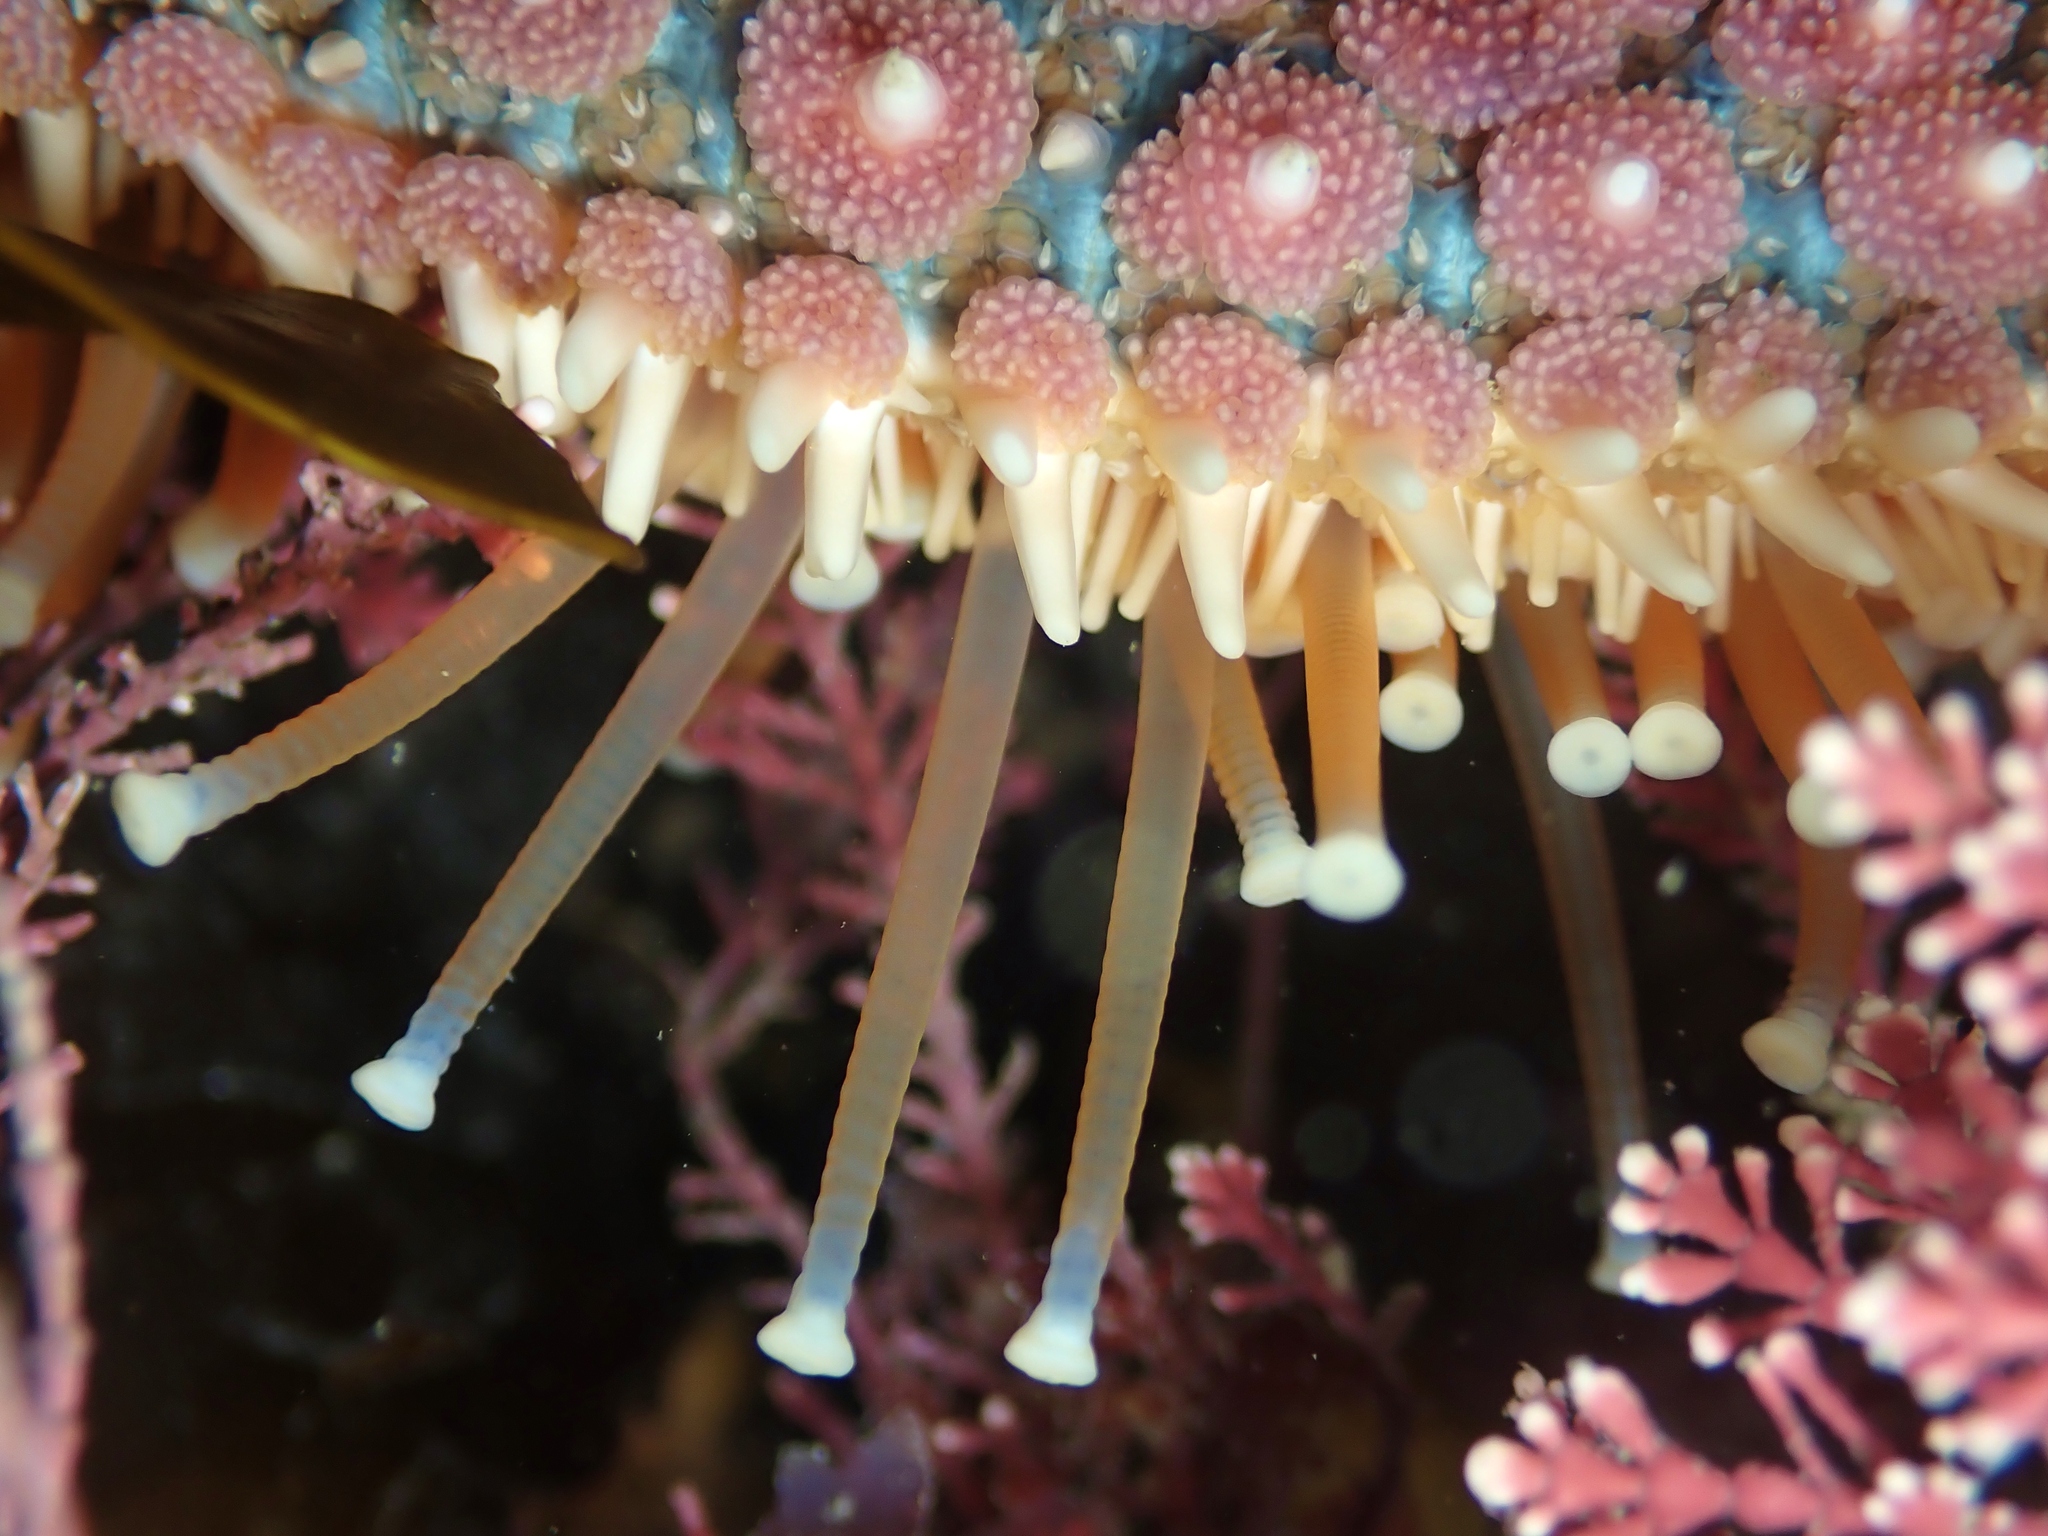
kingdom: Animalia
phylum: Echinodermata
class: Asteroidea
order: Forcipulatida
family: Asteriidae
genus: Astrostole
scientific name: Astrostole scabra
